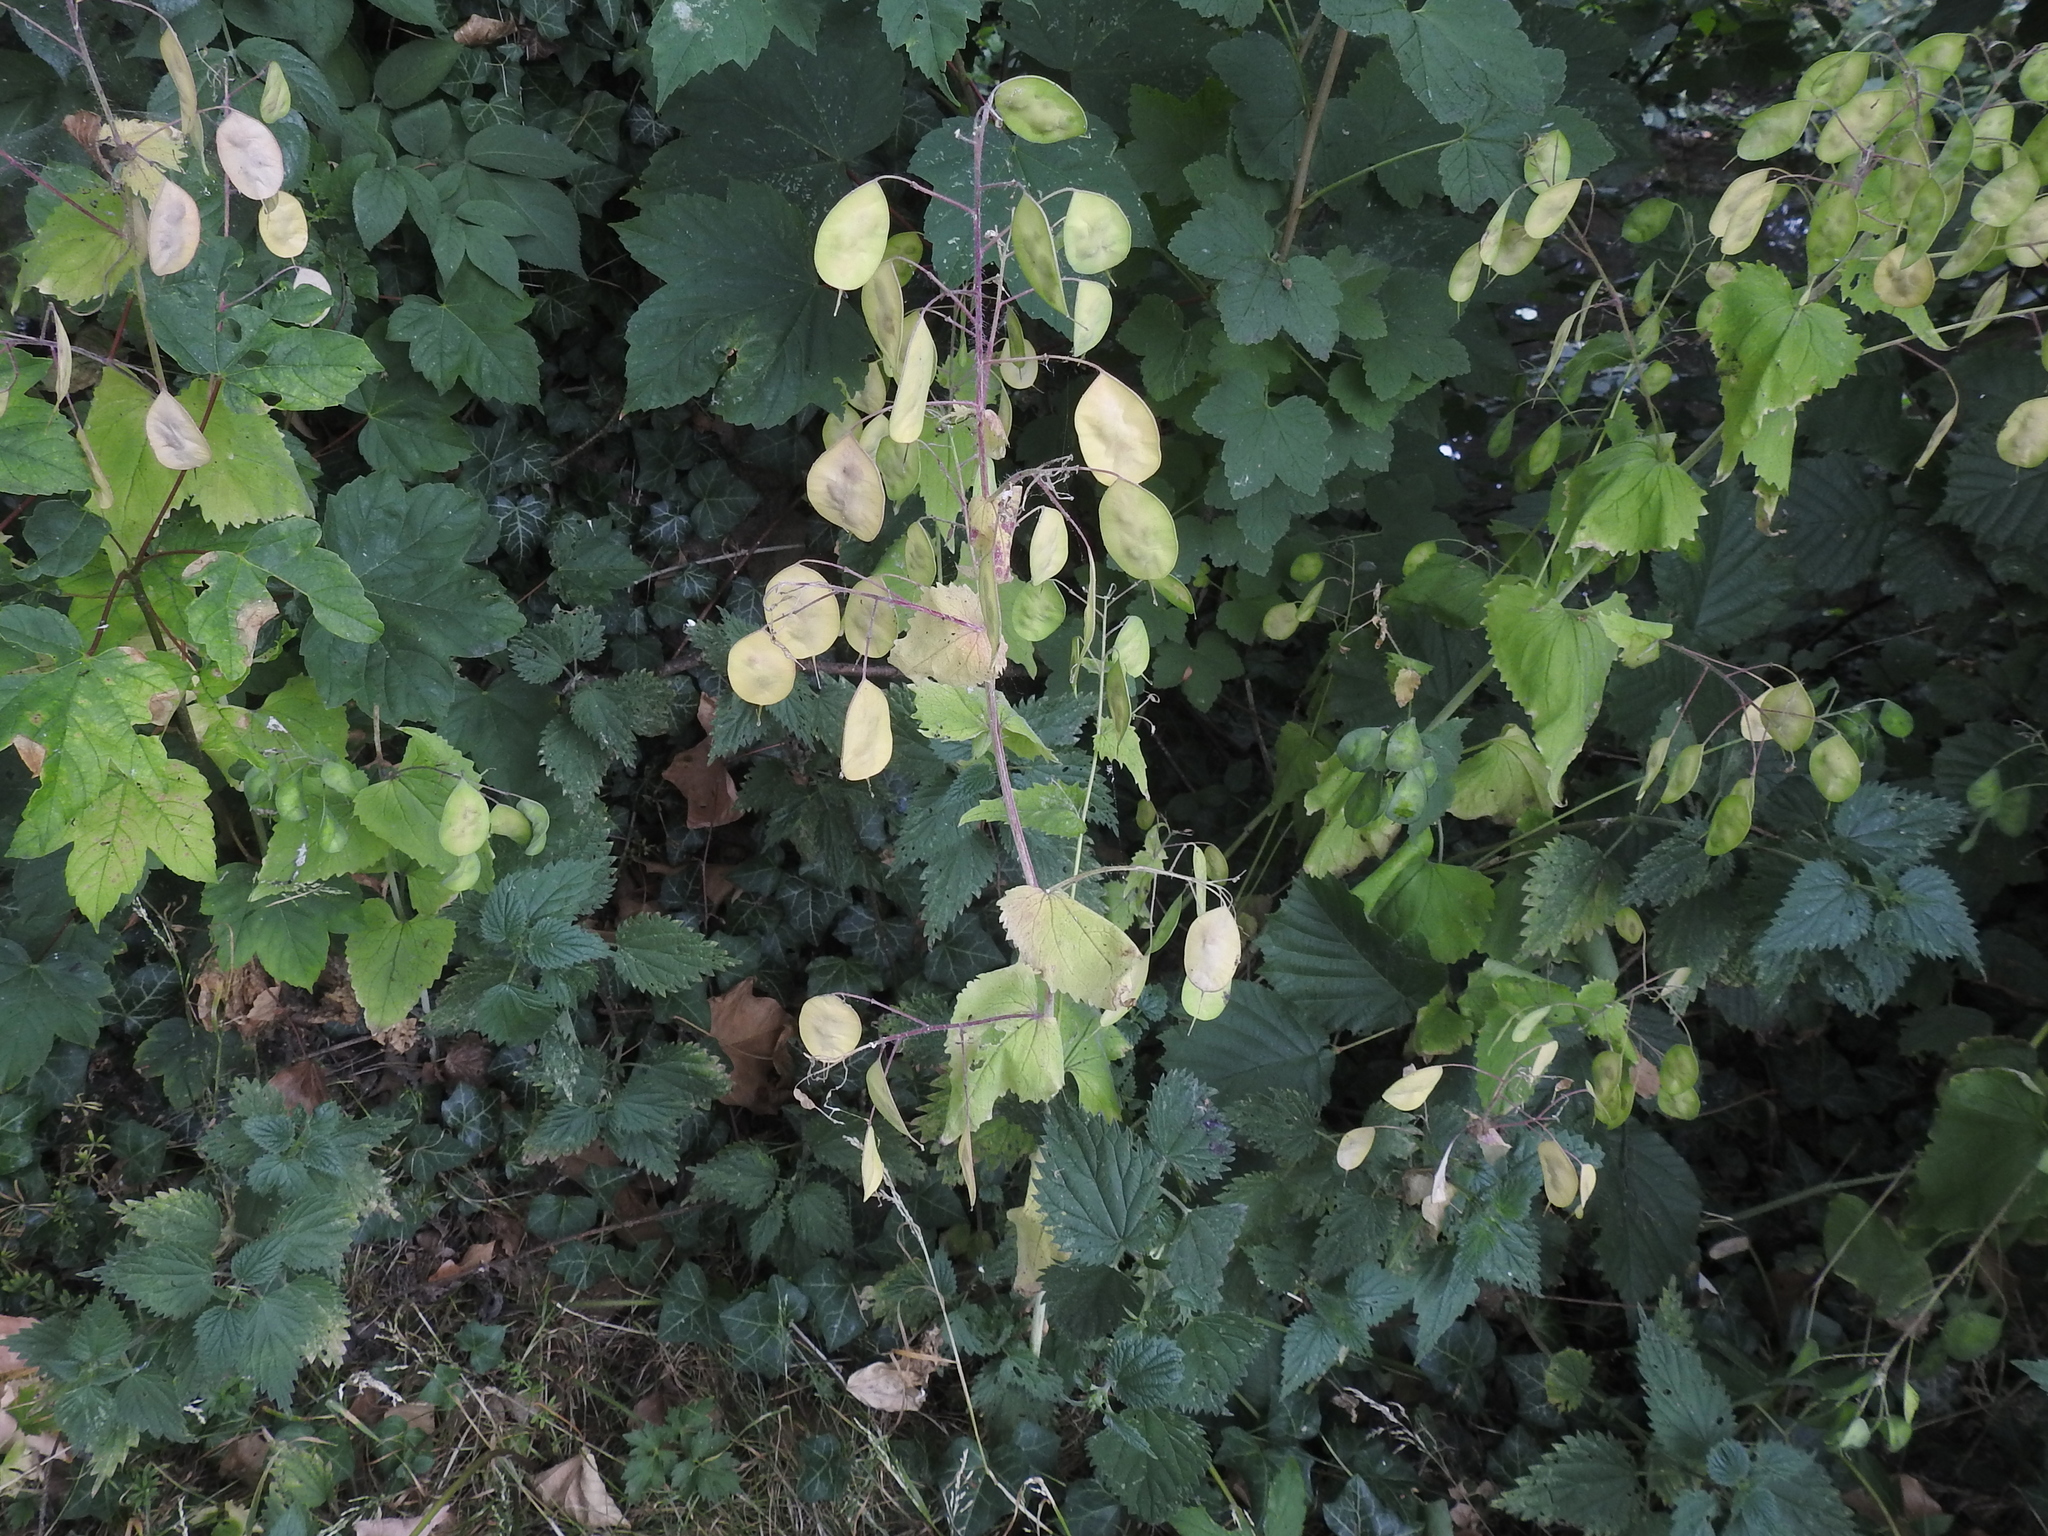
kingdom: Plantae
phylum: Tracheophyta
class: Magnoliopsida
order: Brassicales
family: Brassicaceae
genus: Lunaria
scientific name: Lunaria annua
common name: Honesty
